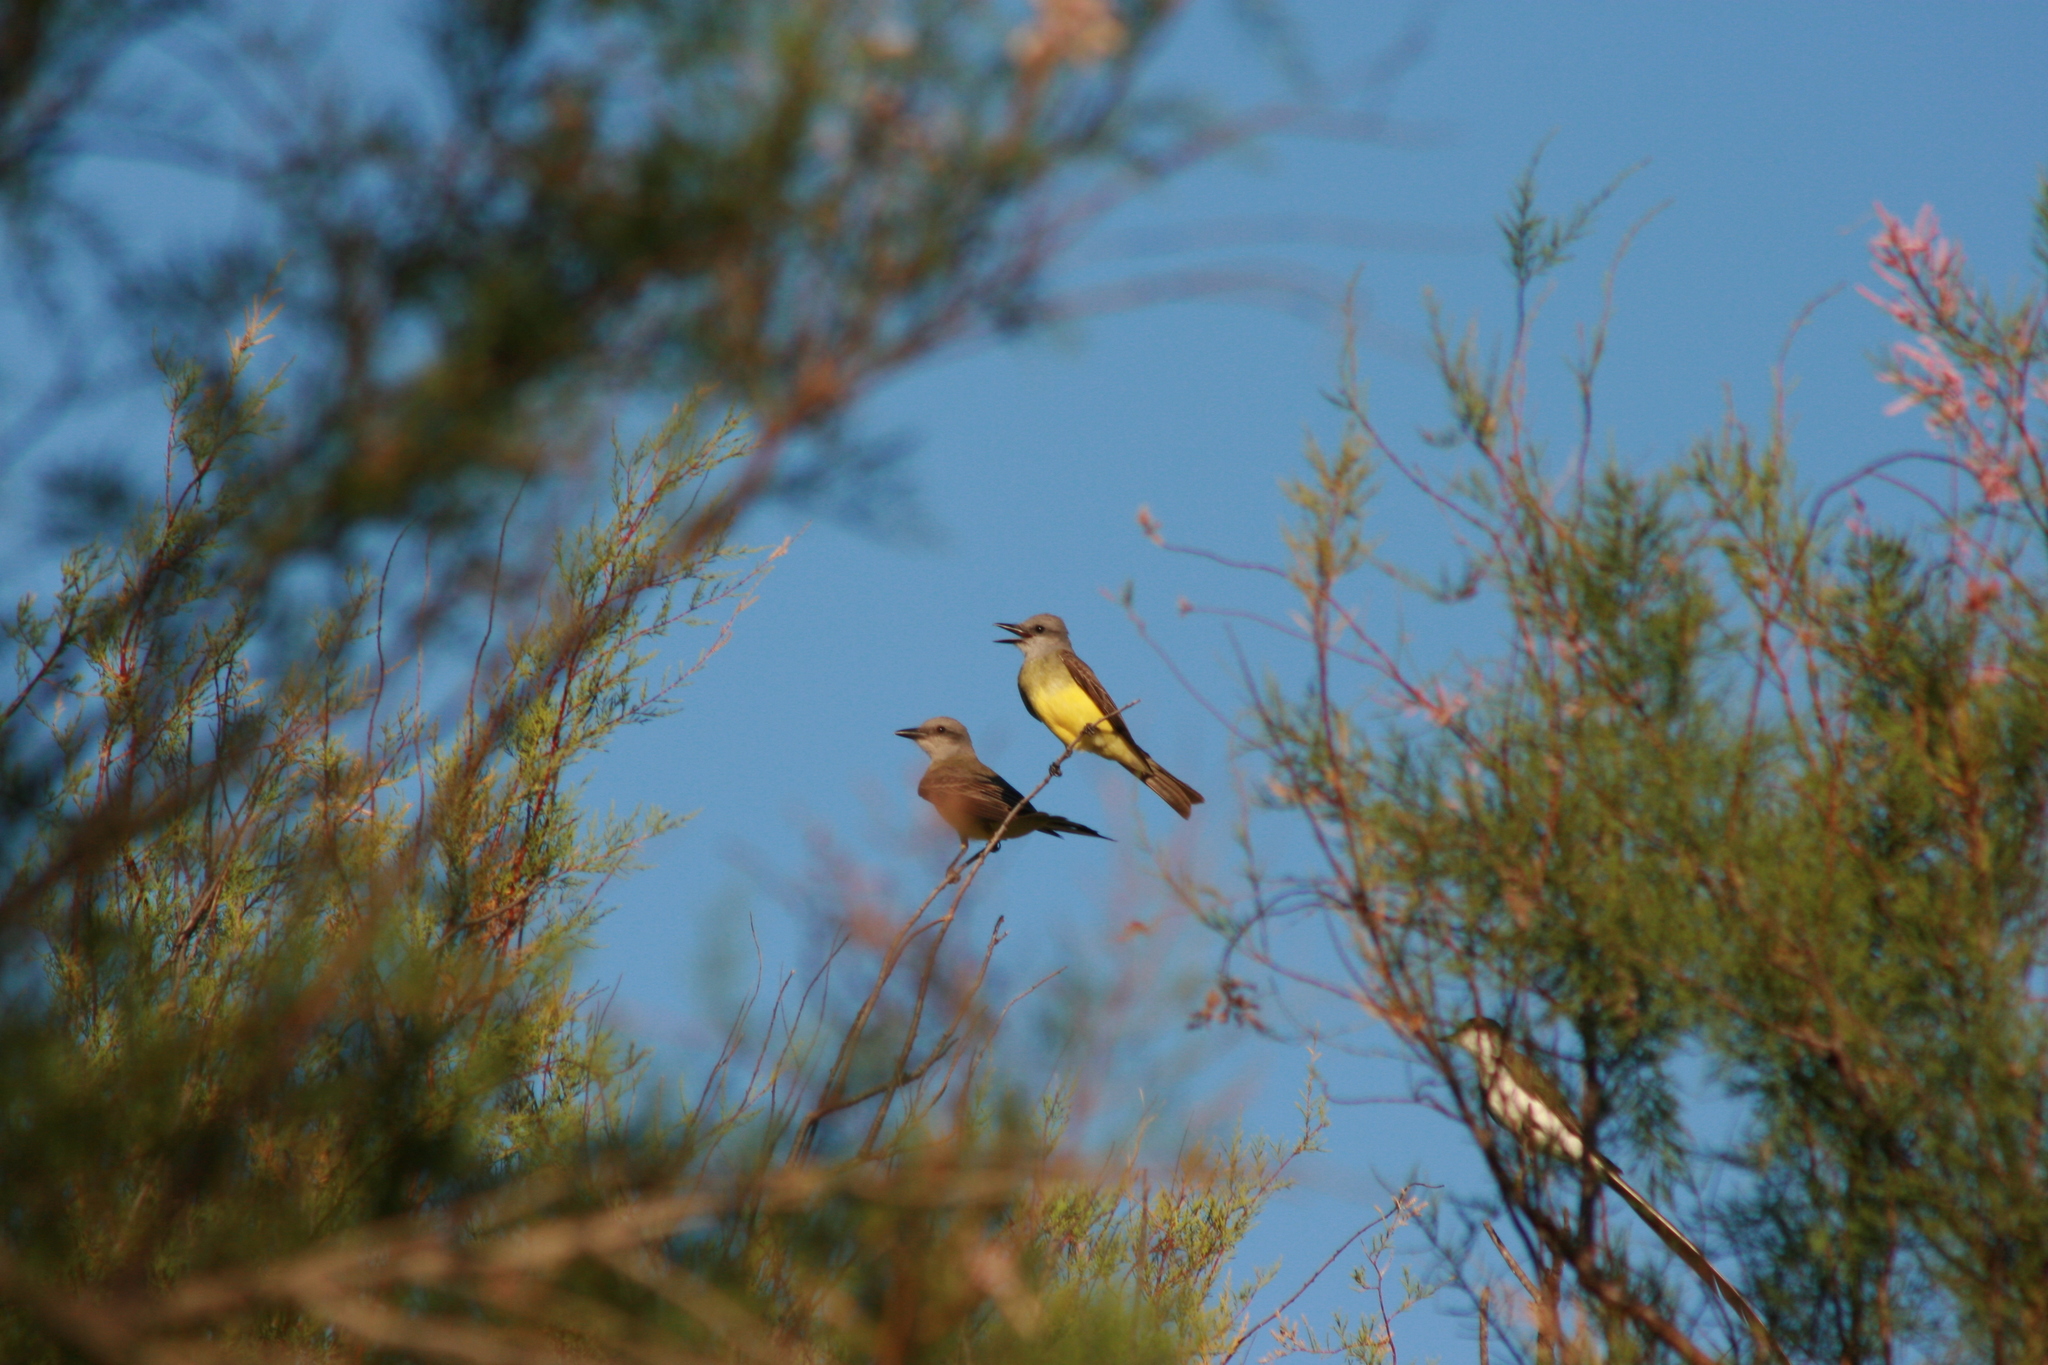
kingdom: Animalia
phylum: Chordata
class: Aves
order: Passeriformes
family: Tyrannidae
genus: Tyrannus
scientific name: Tyrannus melancholicus
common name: Tropical kingbird
